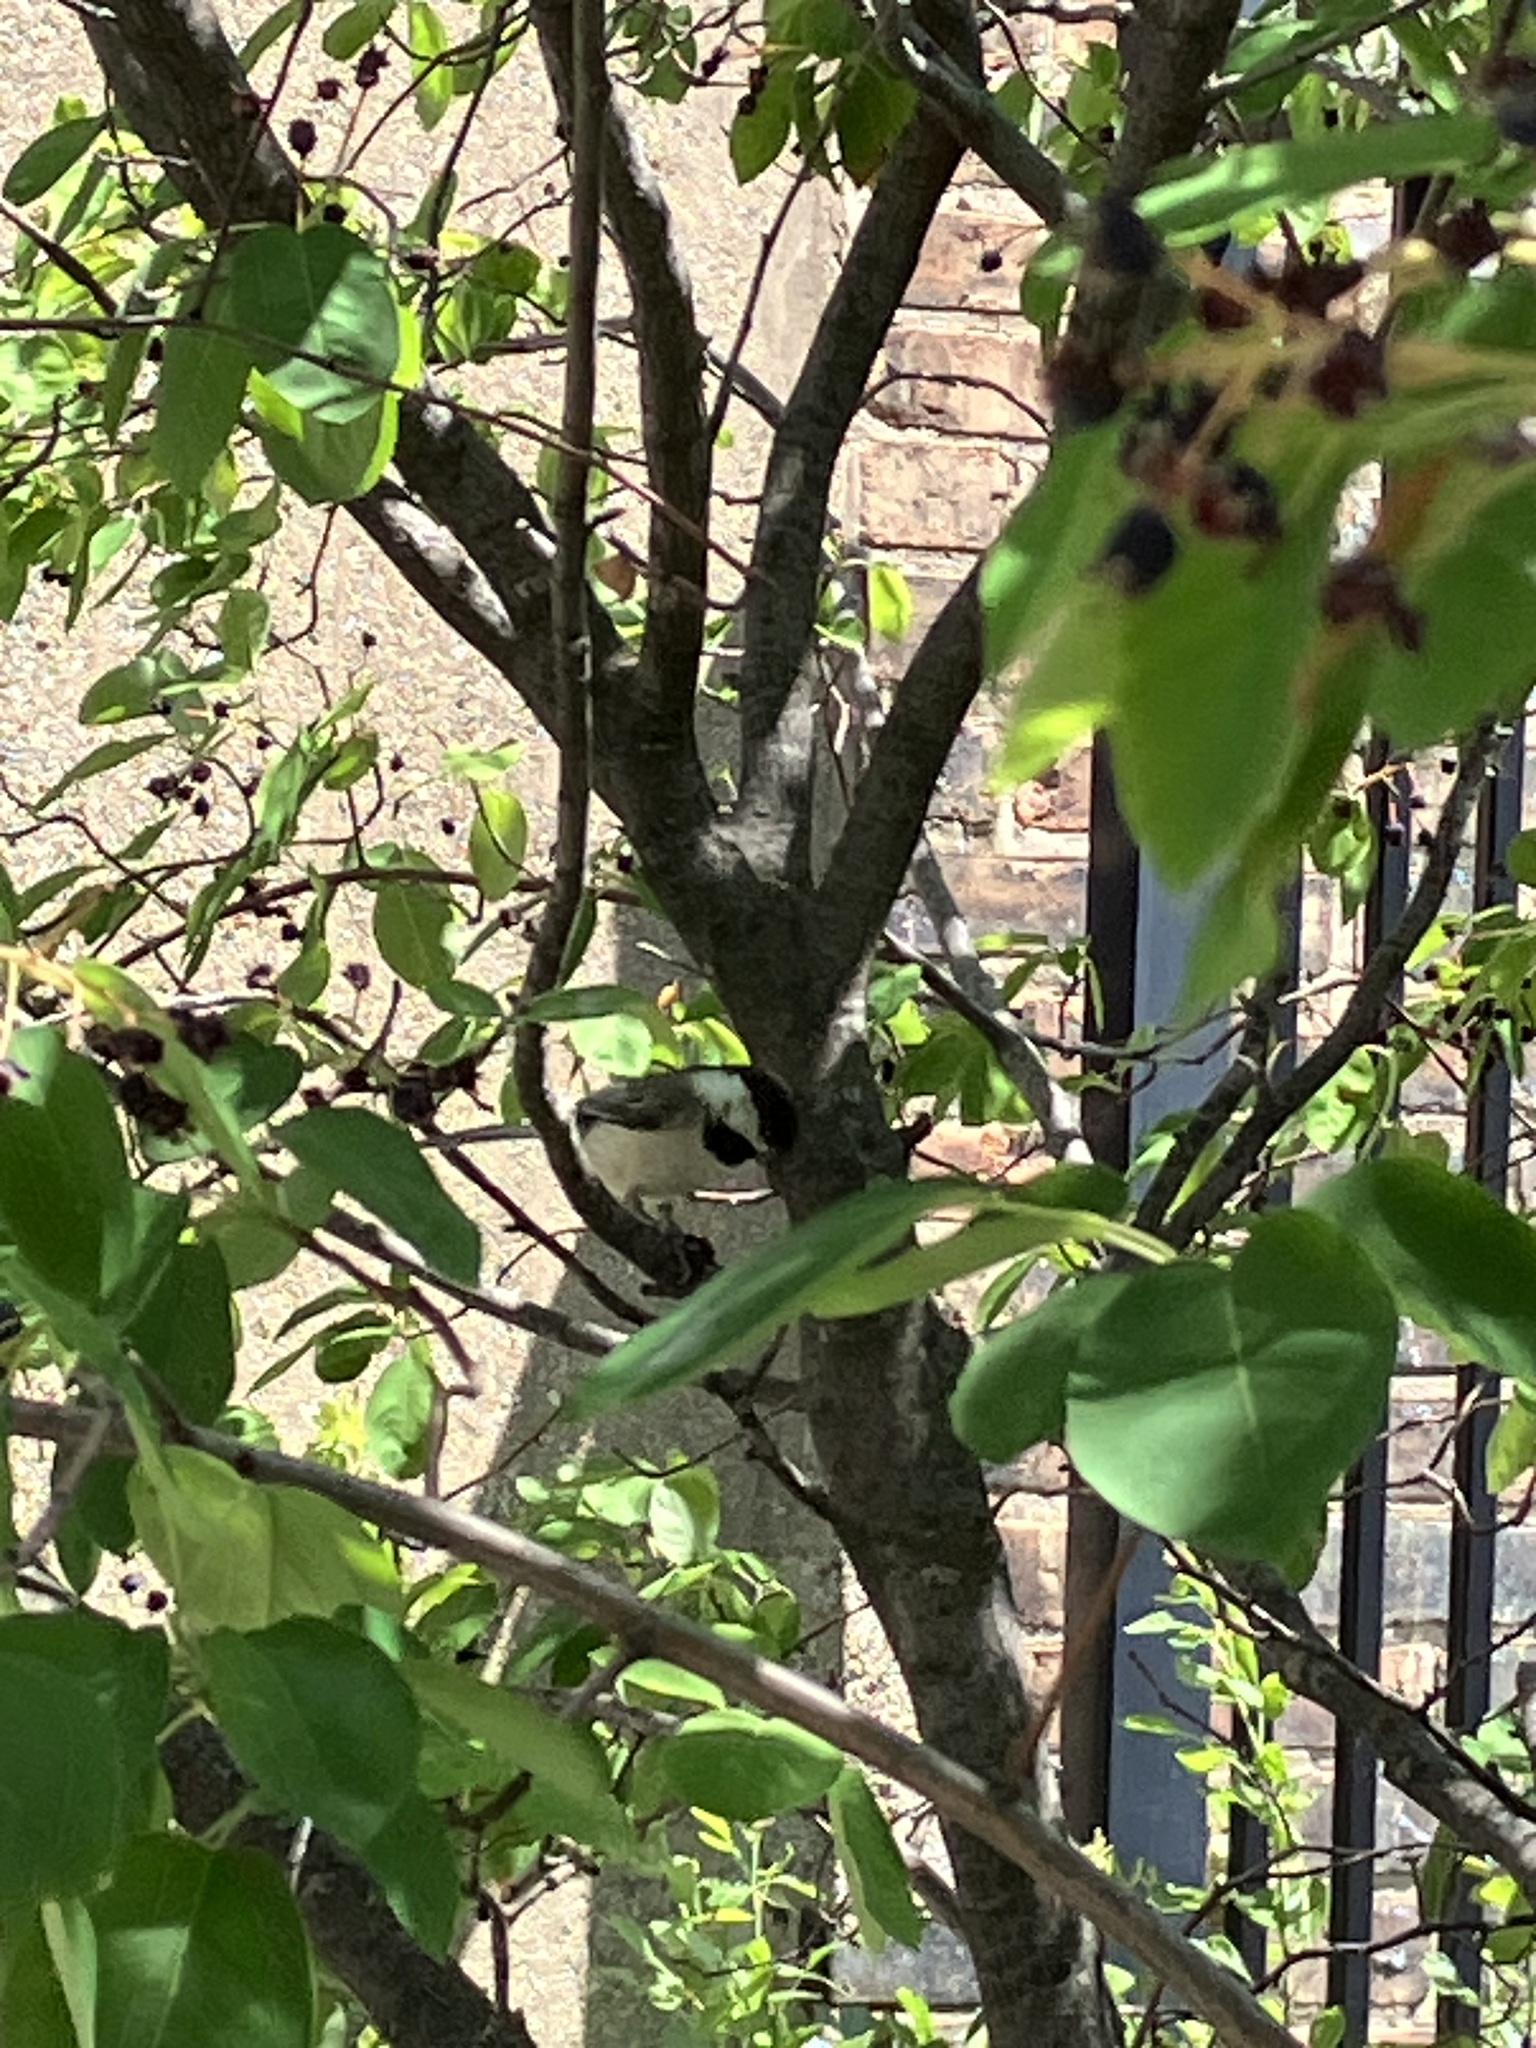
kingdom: Animalia
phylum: Chordata
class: Aves
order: Passeriformes
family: Paridae
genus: Poecile
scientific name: Poecile atricapillus
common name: Black-capped chickadee
